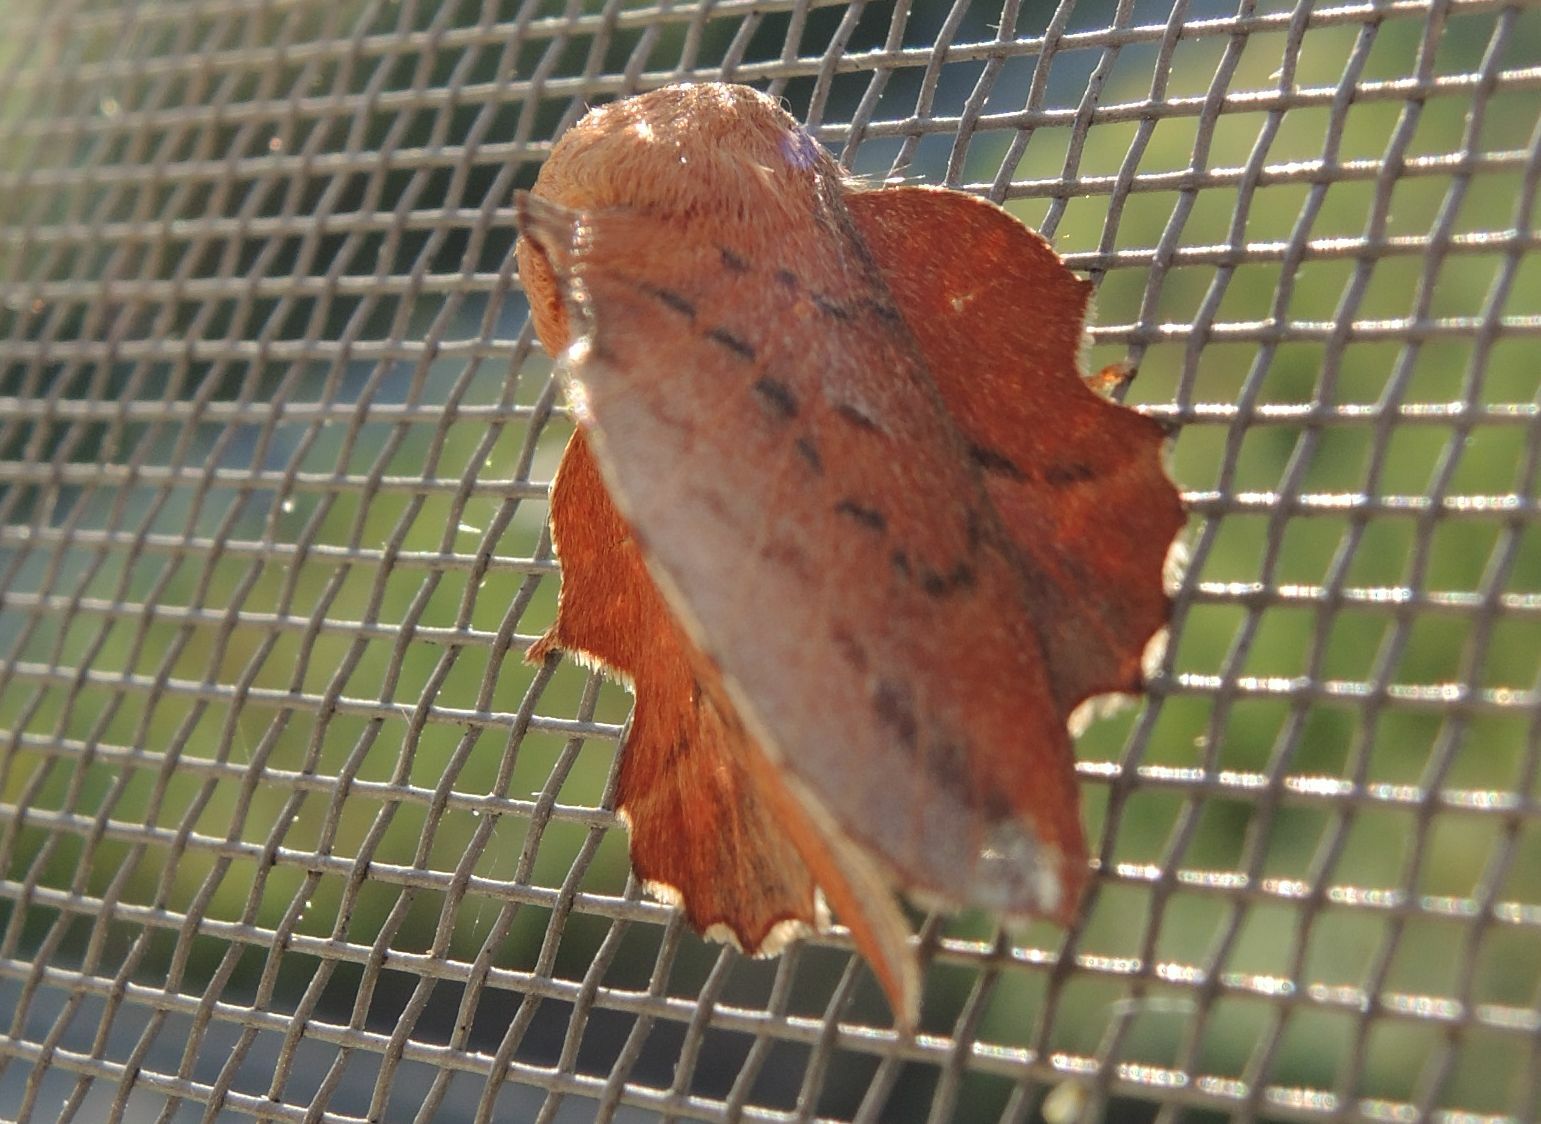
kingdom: Animalia
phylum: Arthropoda
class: Insecta
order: Lepidoptera
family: Lasiocampidae
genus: Phyllodesma
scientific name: Phyllodesma tremulifolia
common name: Aspen lappet
